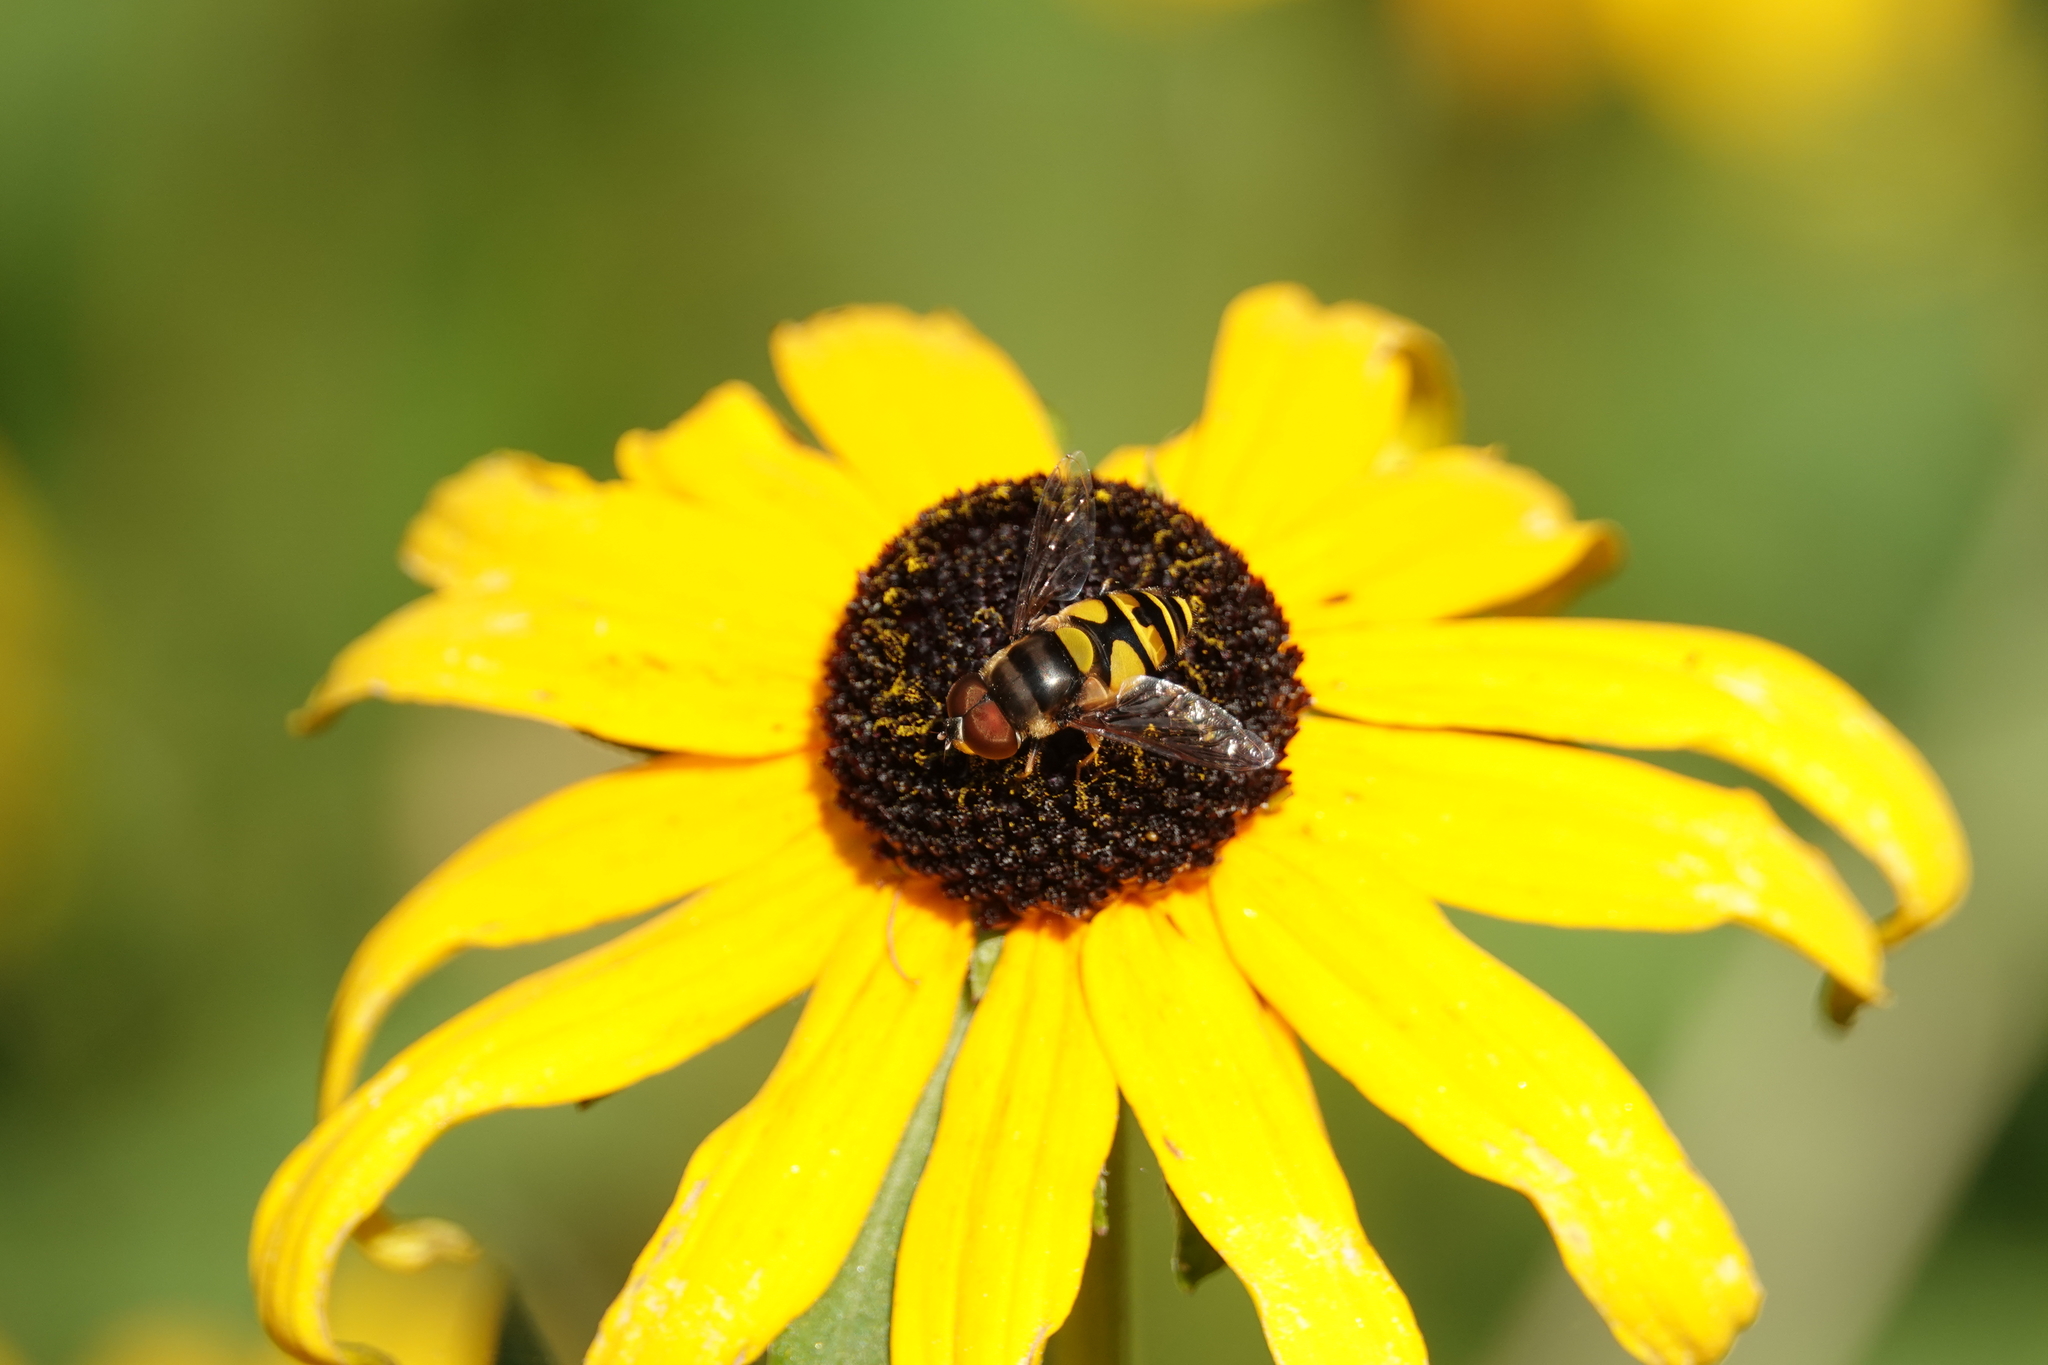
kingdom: Animalia
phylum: Arthropoda
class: Insecta
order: Diptera
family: Syrphidae
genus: Eristalis
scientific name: Eristalis transversa
